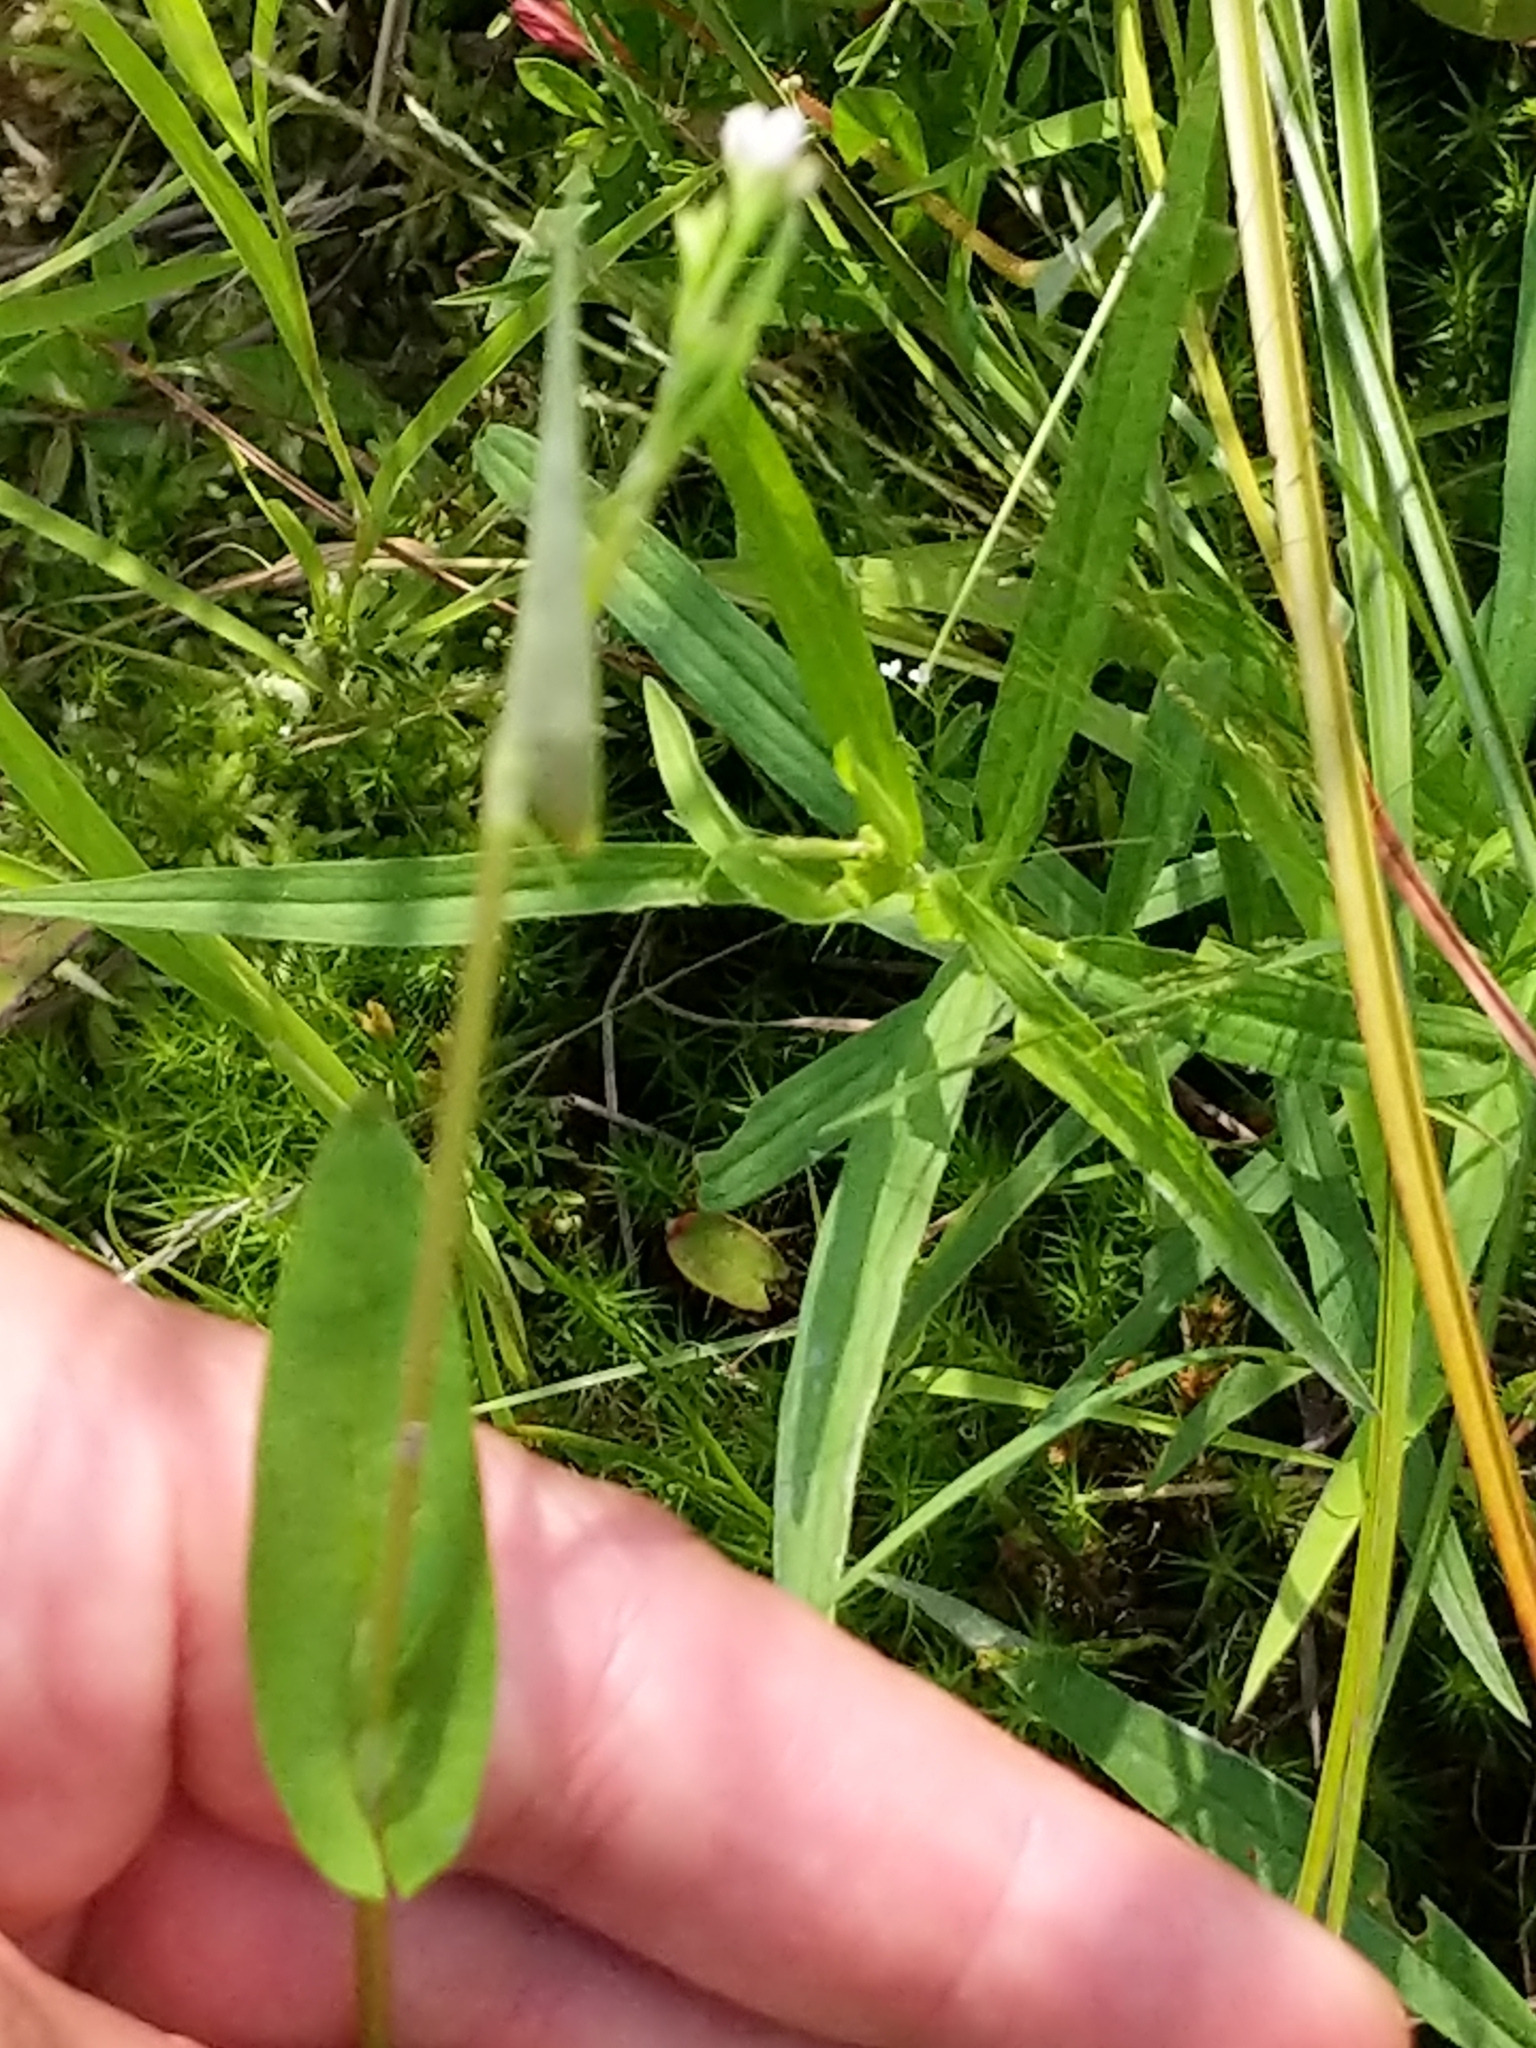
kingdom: Plantae
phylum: Tracheophyta
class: Magnoliopsida
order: Caryophyllales
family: Polygonaceae
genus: Persicaria
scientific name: Persicaria sagittata
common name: American tearthumb
